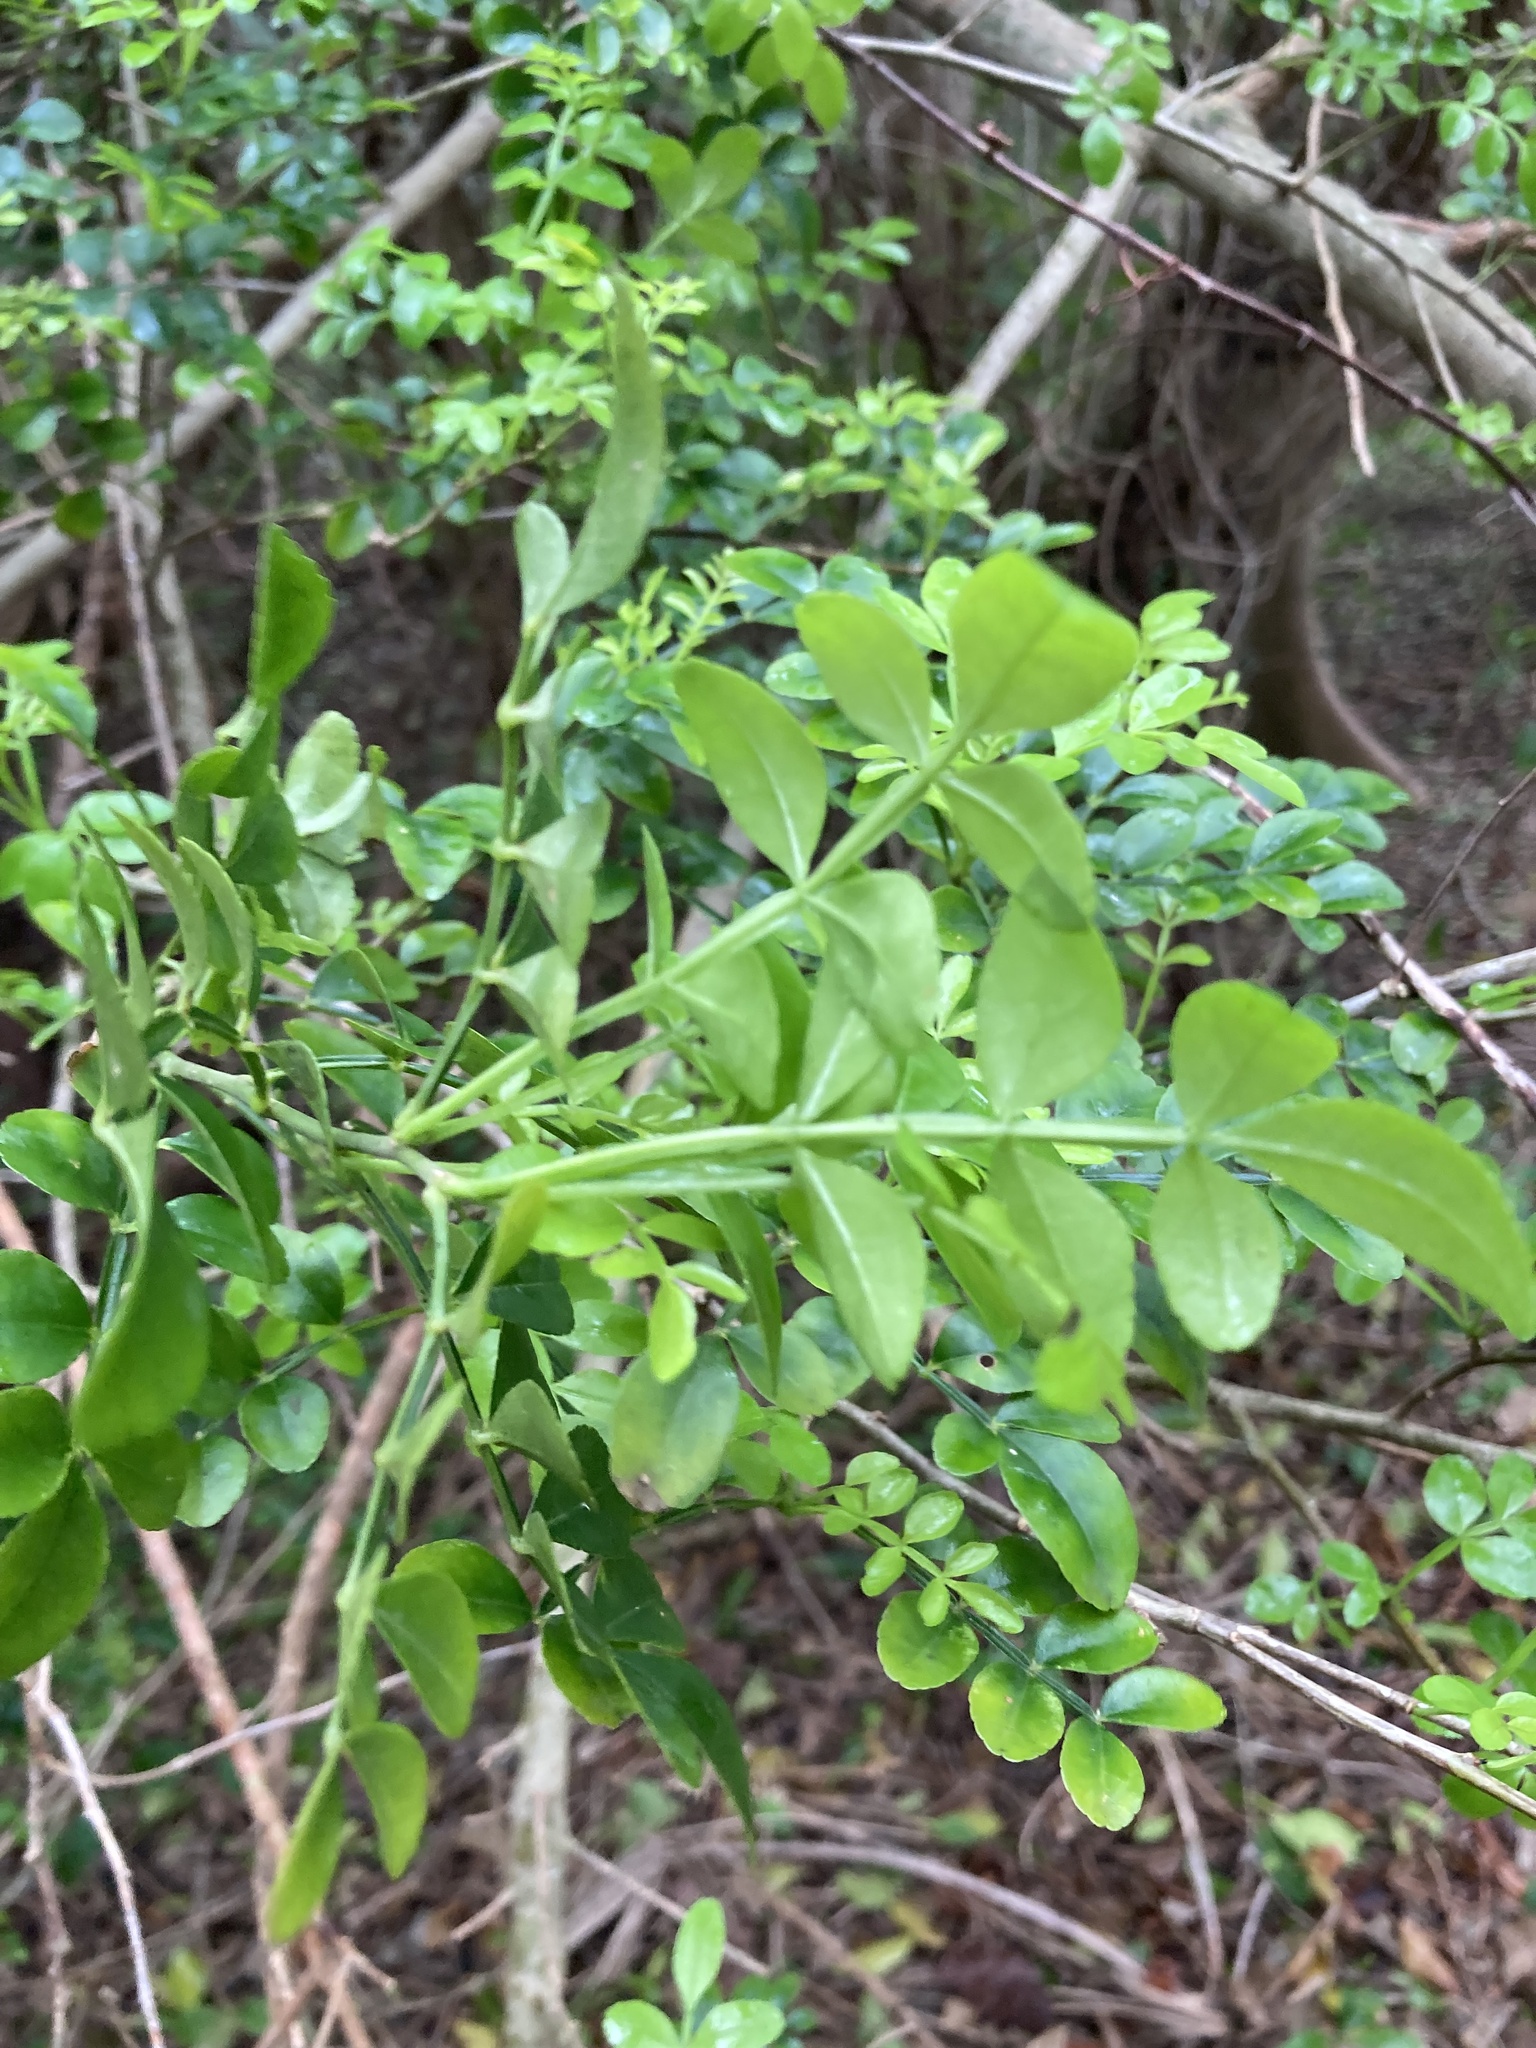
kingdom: Plantae
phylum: Tracheophyta
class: Magnoliopsida
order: Sapindales
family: Rutaceae
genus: Zanthoxylum
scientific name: Zanthoxylum fagara
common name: Lime prickly-ash
